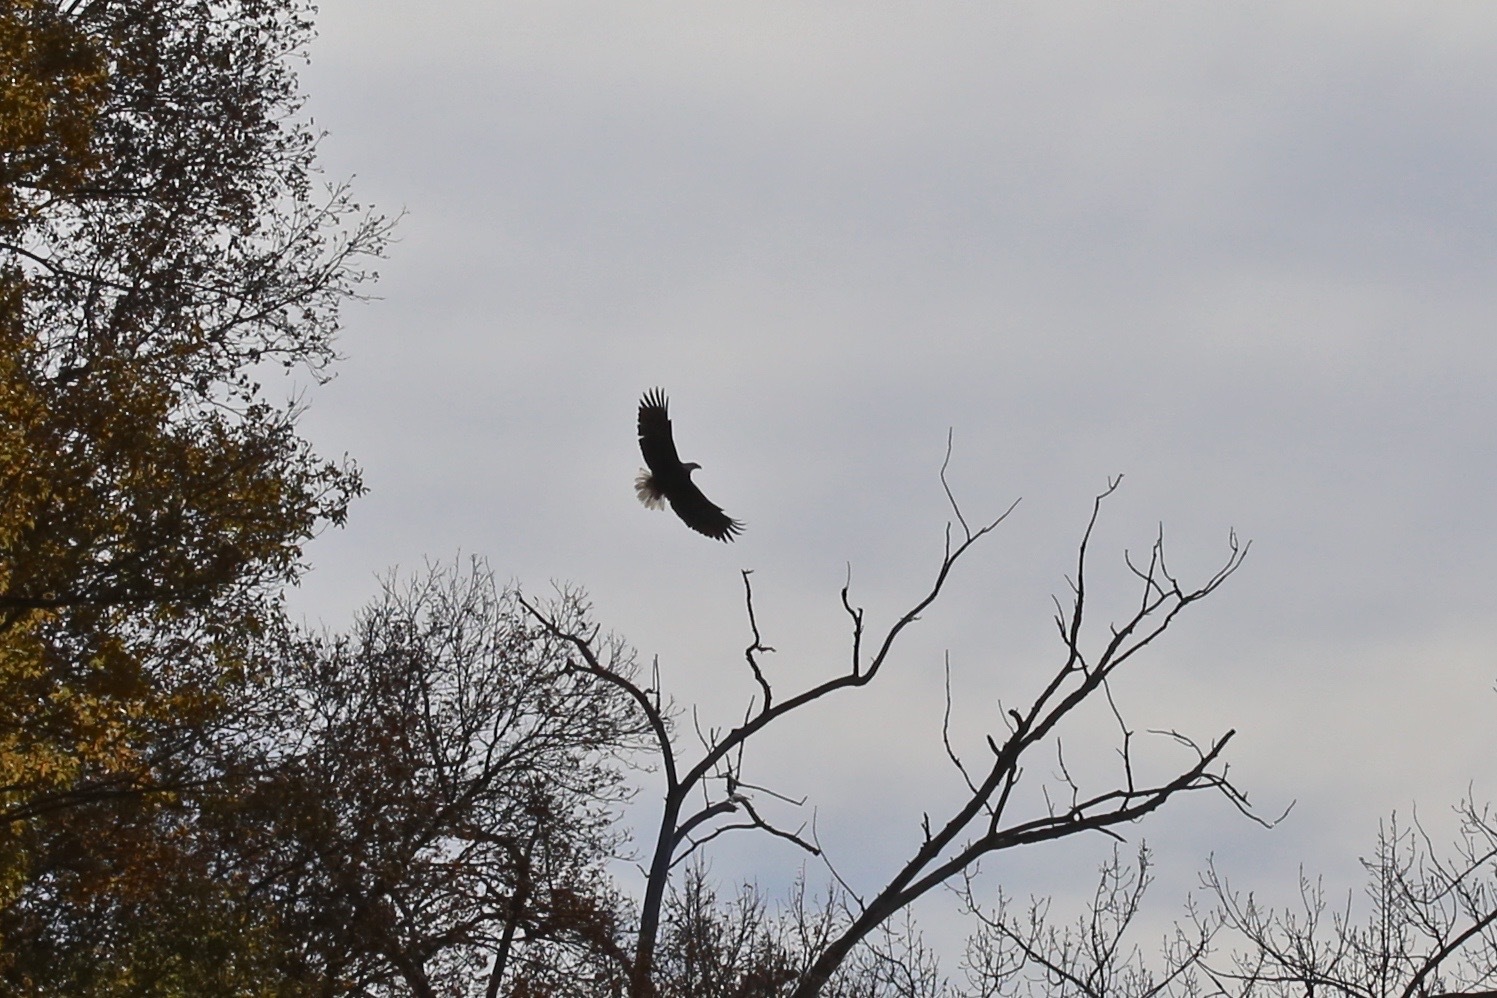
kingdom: Animalia
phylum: Chordata
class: Aves
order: Accipitriformes
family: Accipitridae
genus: Haliaeetus
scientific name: Haliaeetus leucocephalus
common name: Bald eagle
